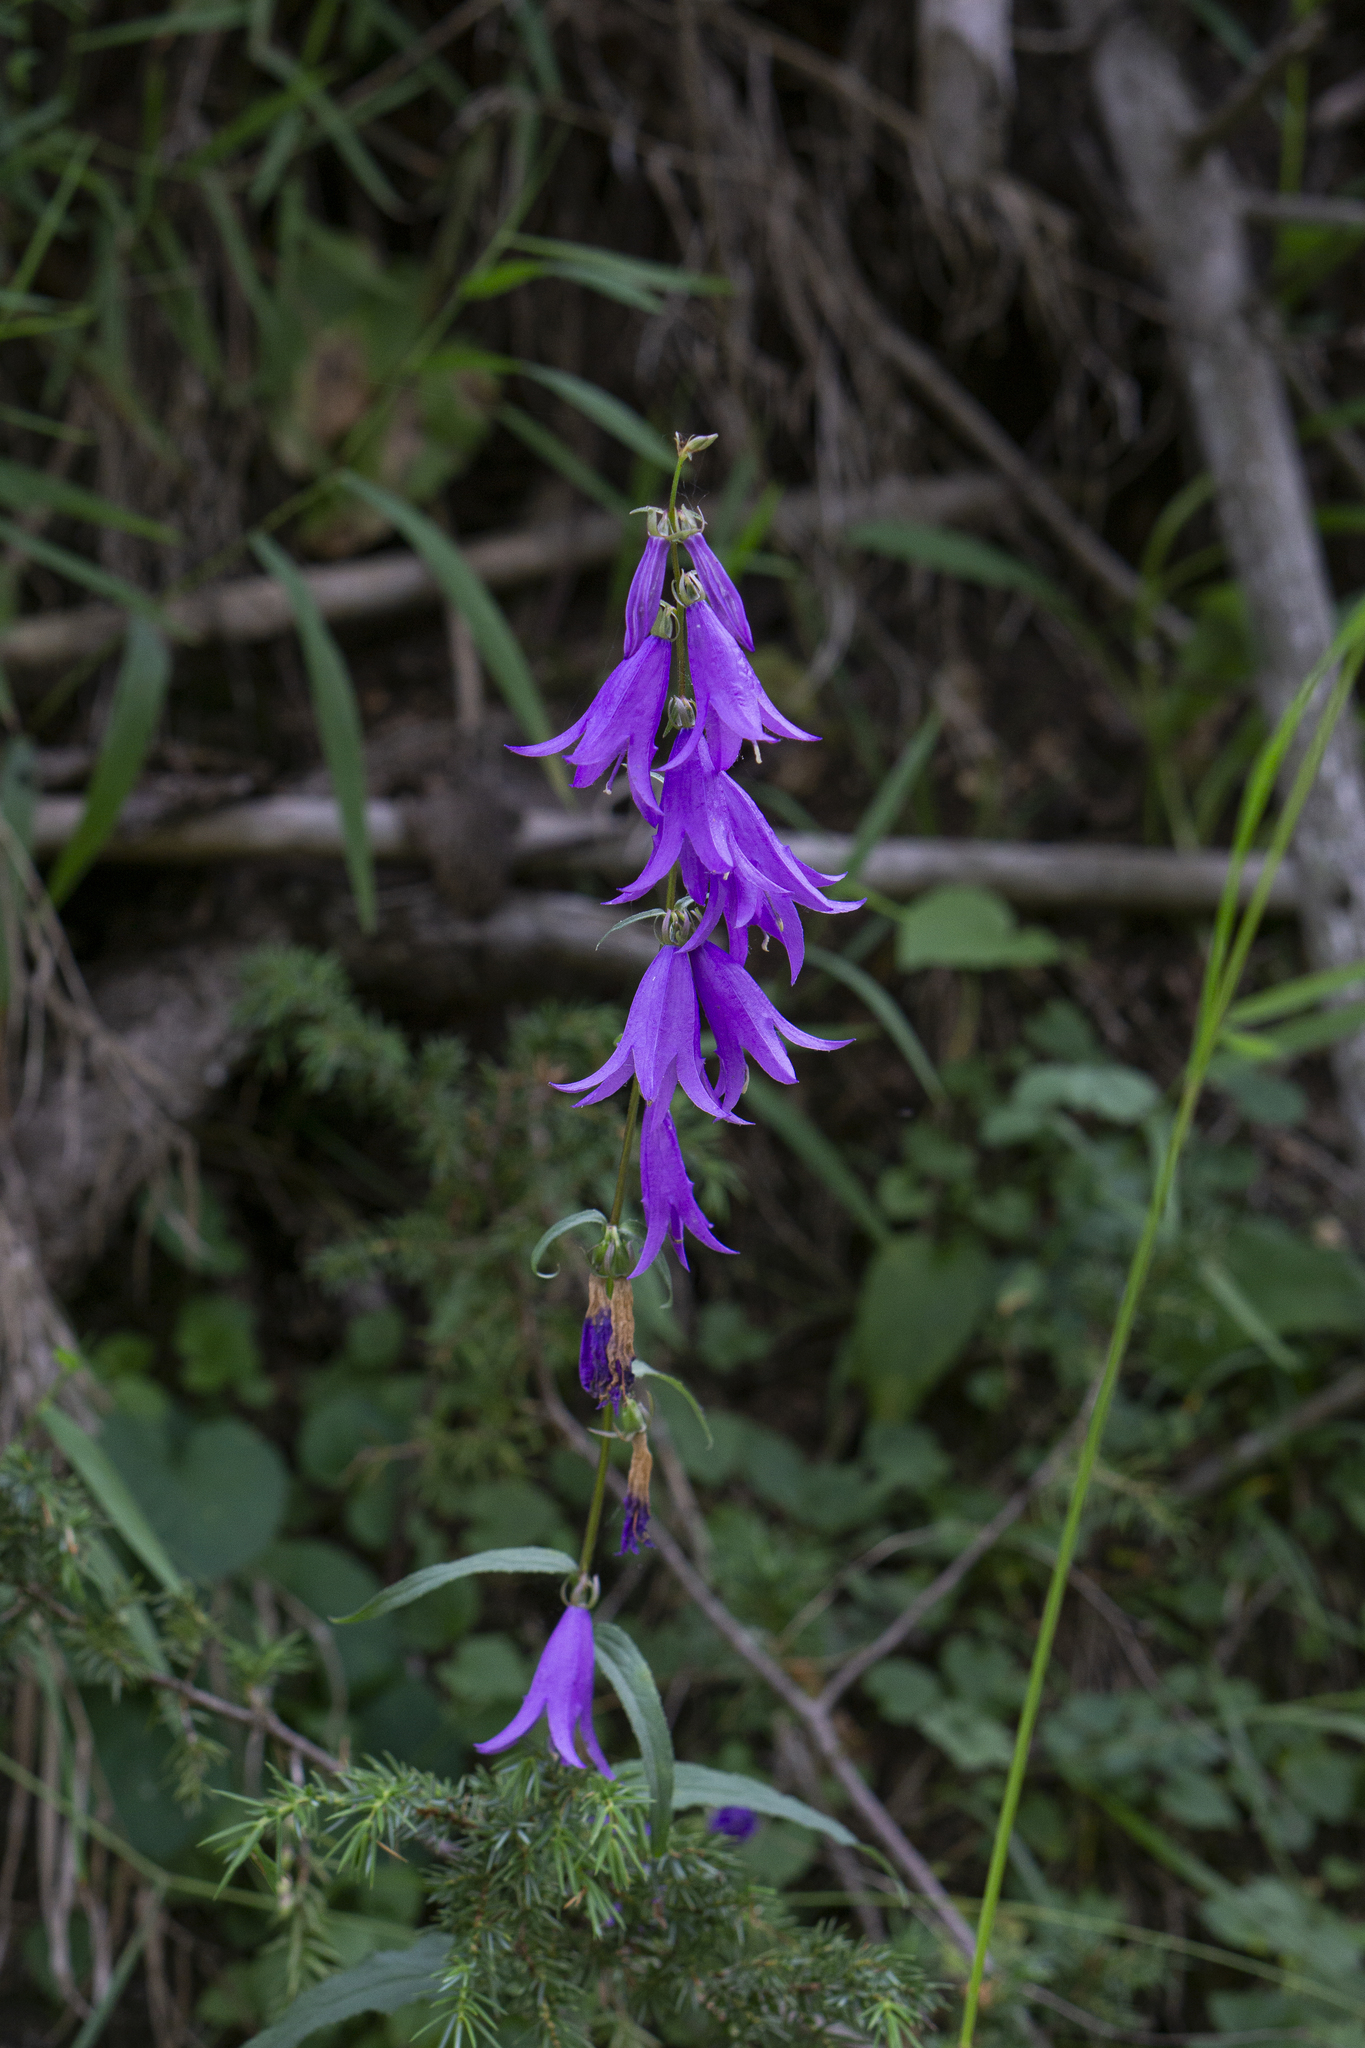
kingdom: Plantae
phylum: Tracheophyta
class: Magnoliopsida
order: Asterales
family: Campanulaceae
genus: Campanula
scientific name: Campanula rapunculoides
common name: Creeping bellflower
